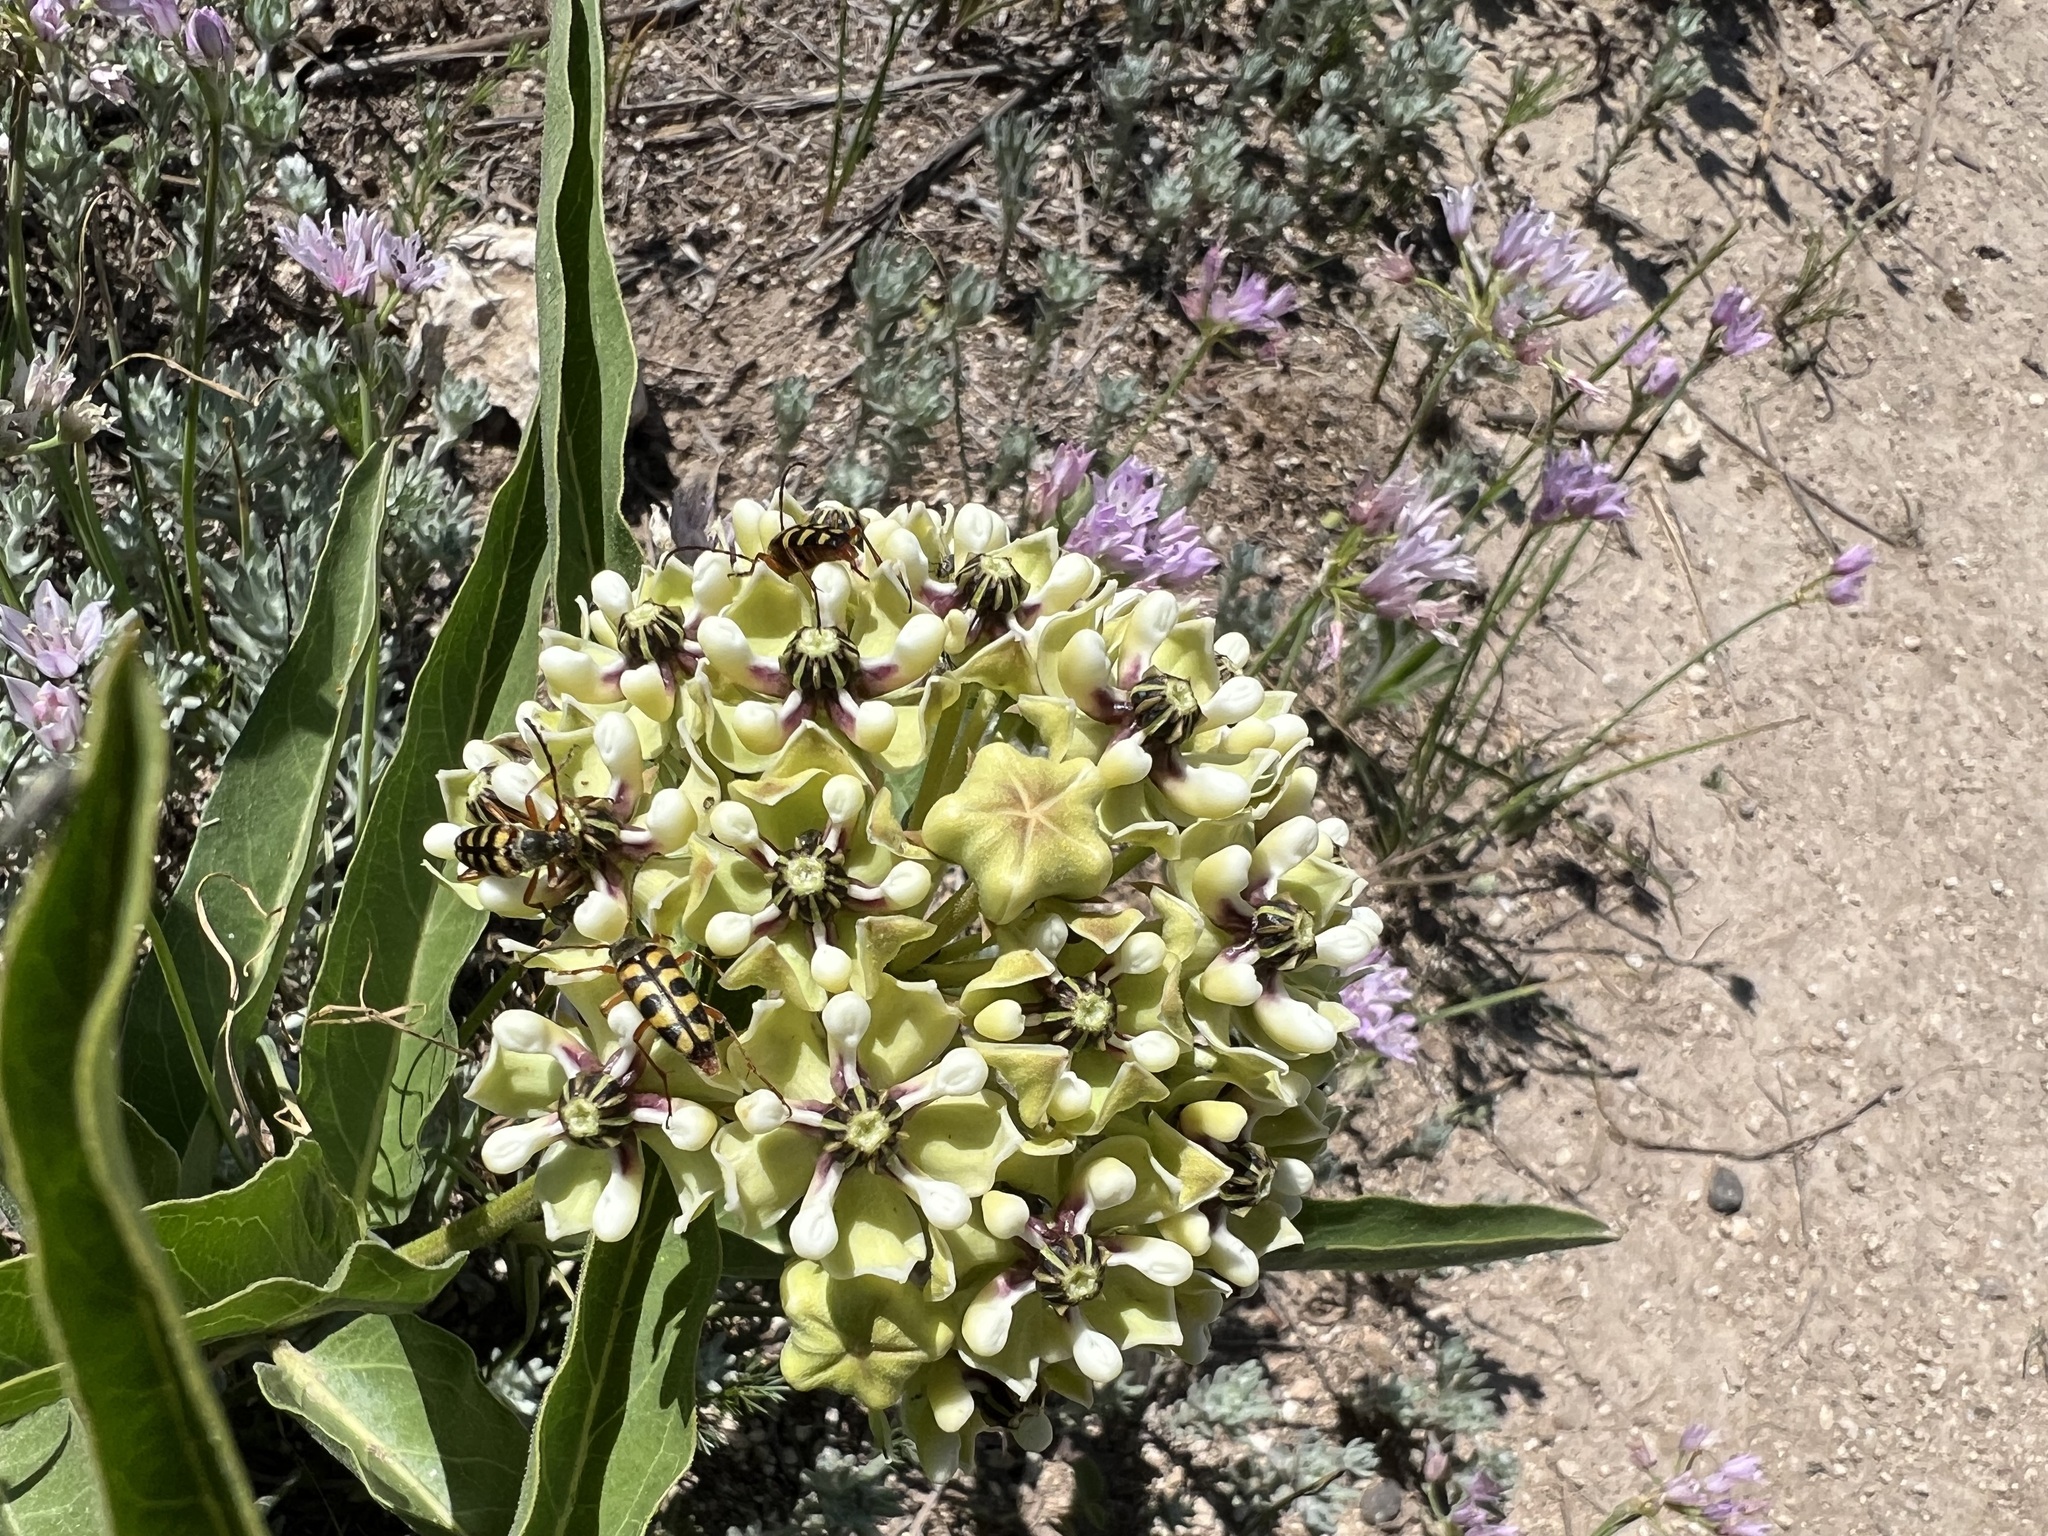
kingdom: Animalia
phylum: Arthropoda
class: Insecta
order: Coleoptera
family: Cerambycidae
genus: Typocerus
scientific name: Typocerus sinuatus
